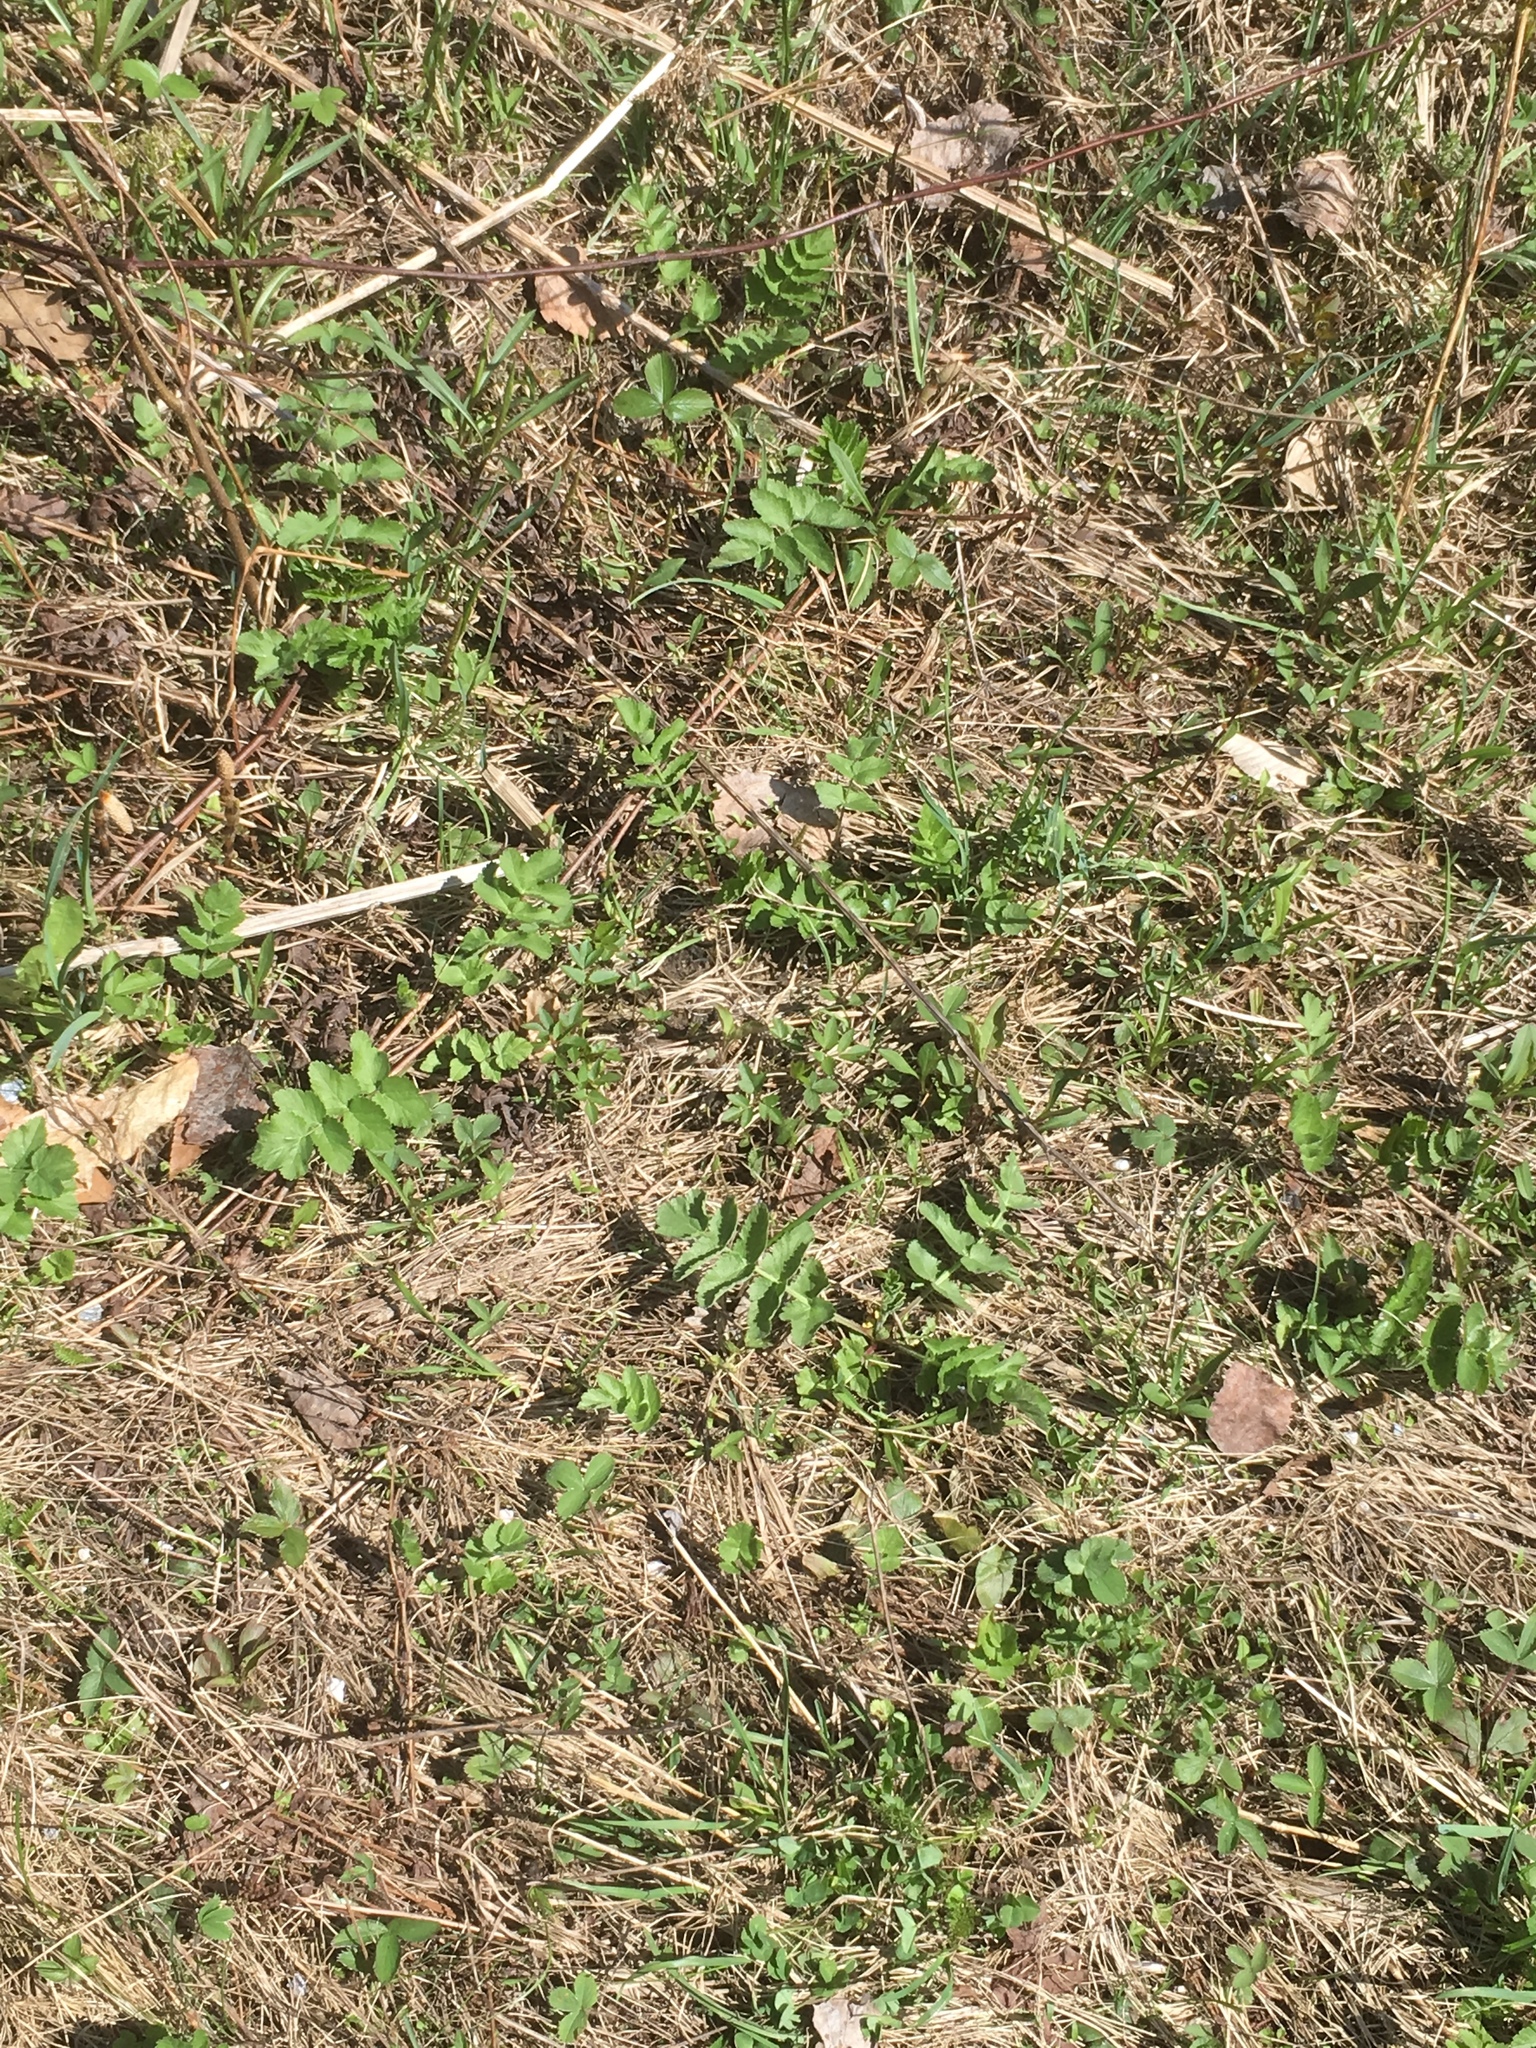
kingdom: Plantae
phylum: Tracheophyta
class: Magnoliopsida
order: Apiales
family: Apiaceae
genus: Pastinaca
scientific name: Pastinaca sativa
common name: Wild parsnip
